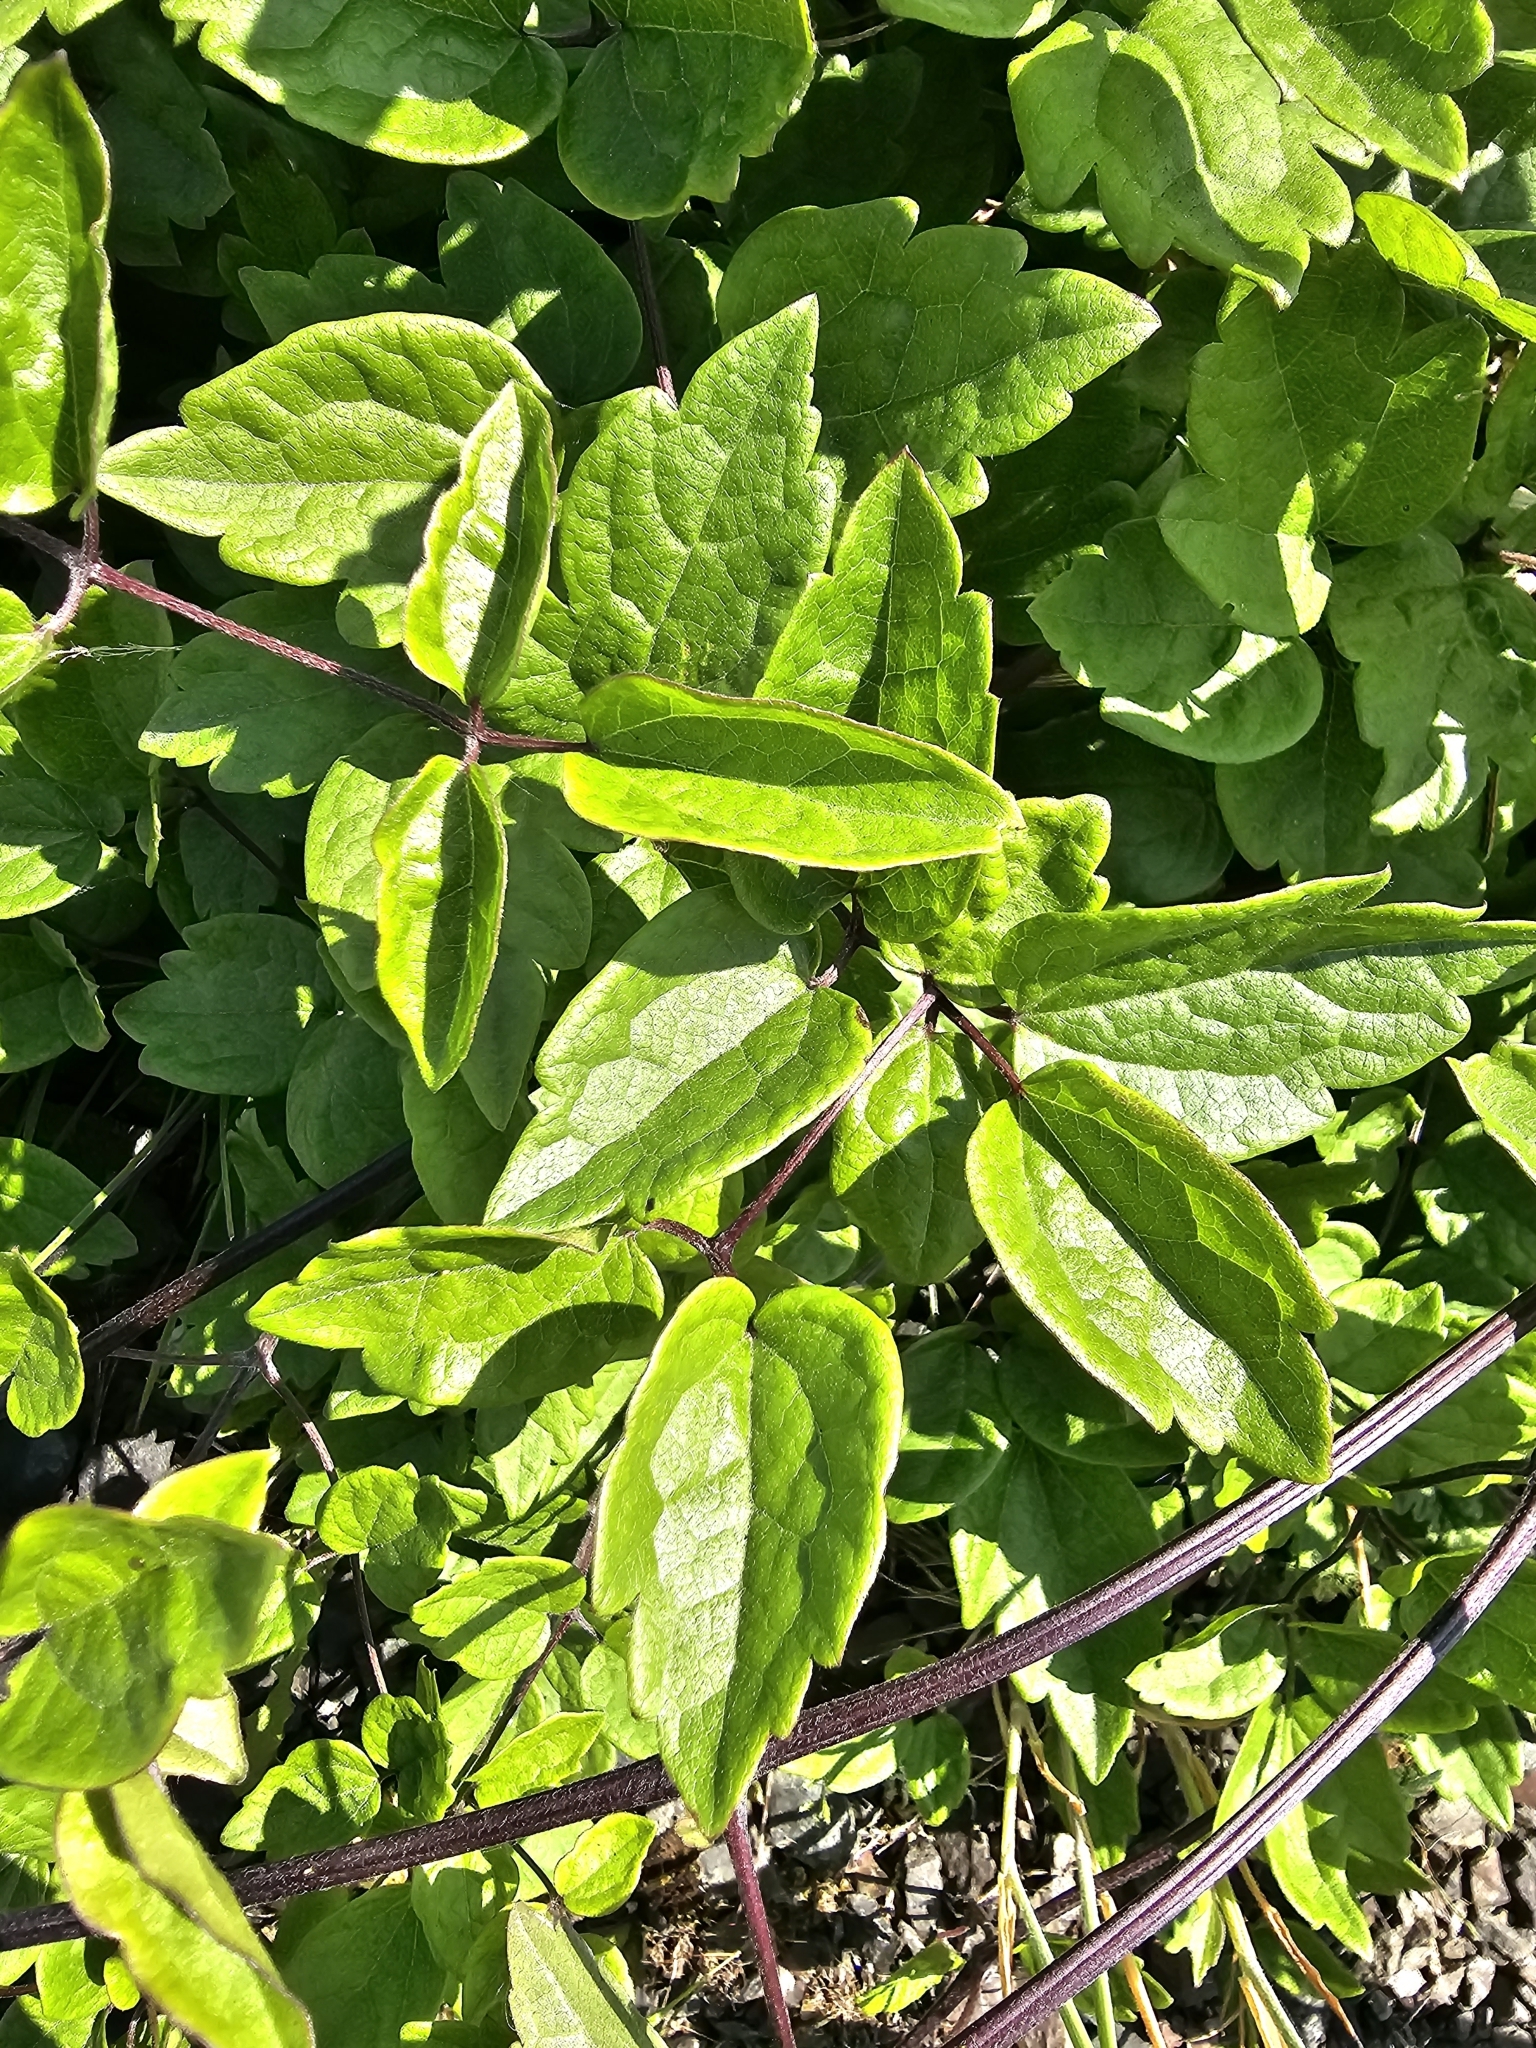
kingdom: Plantae
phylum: Tracheophyta
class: Magnoliopsida
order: Ranunculales
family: Ranunculaceae
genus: Clematis
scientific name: Clematis vitalba
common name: Evergreen clematis
